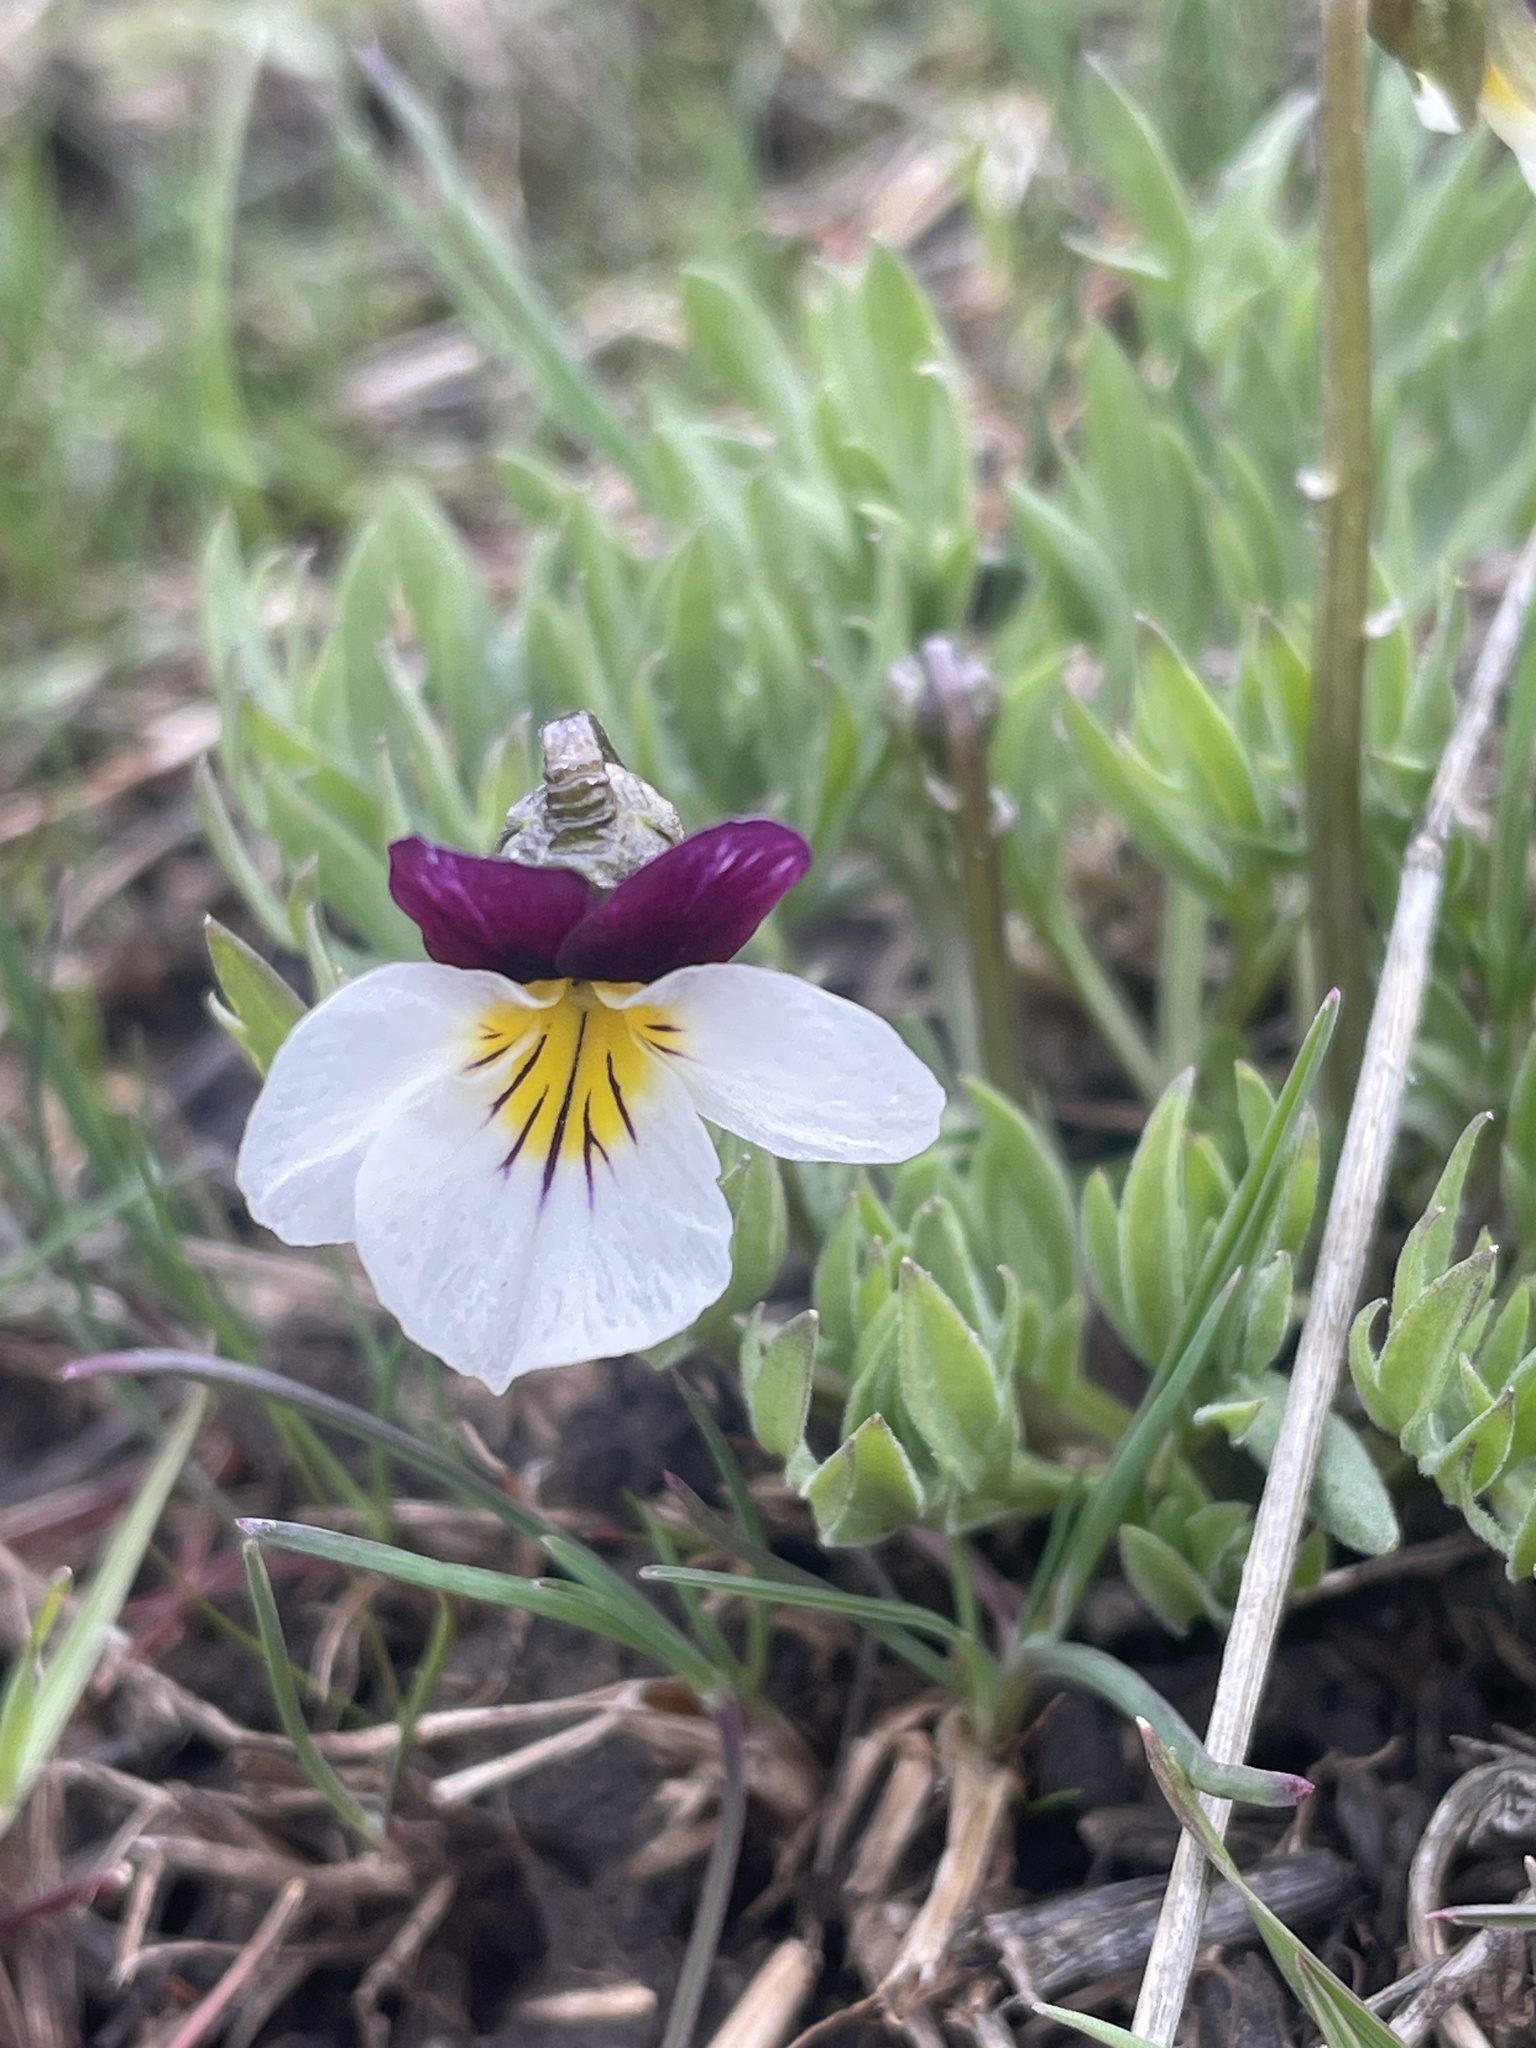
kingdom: Plantae
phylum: Tracheophyta
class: Magnoliopsida
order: Malpighiales
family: Violaceae
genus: Viola
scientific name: Viola beckwithii
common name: Beckwith's violet
